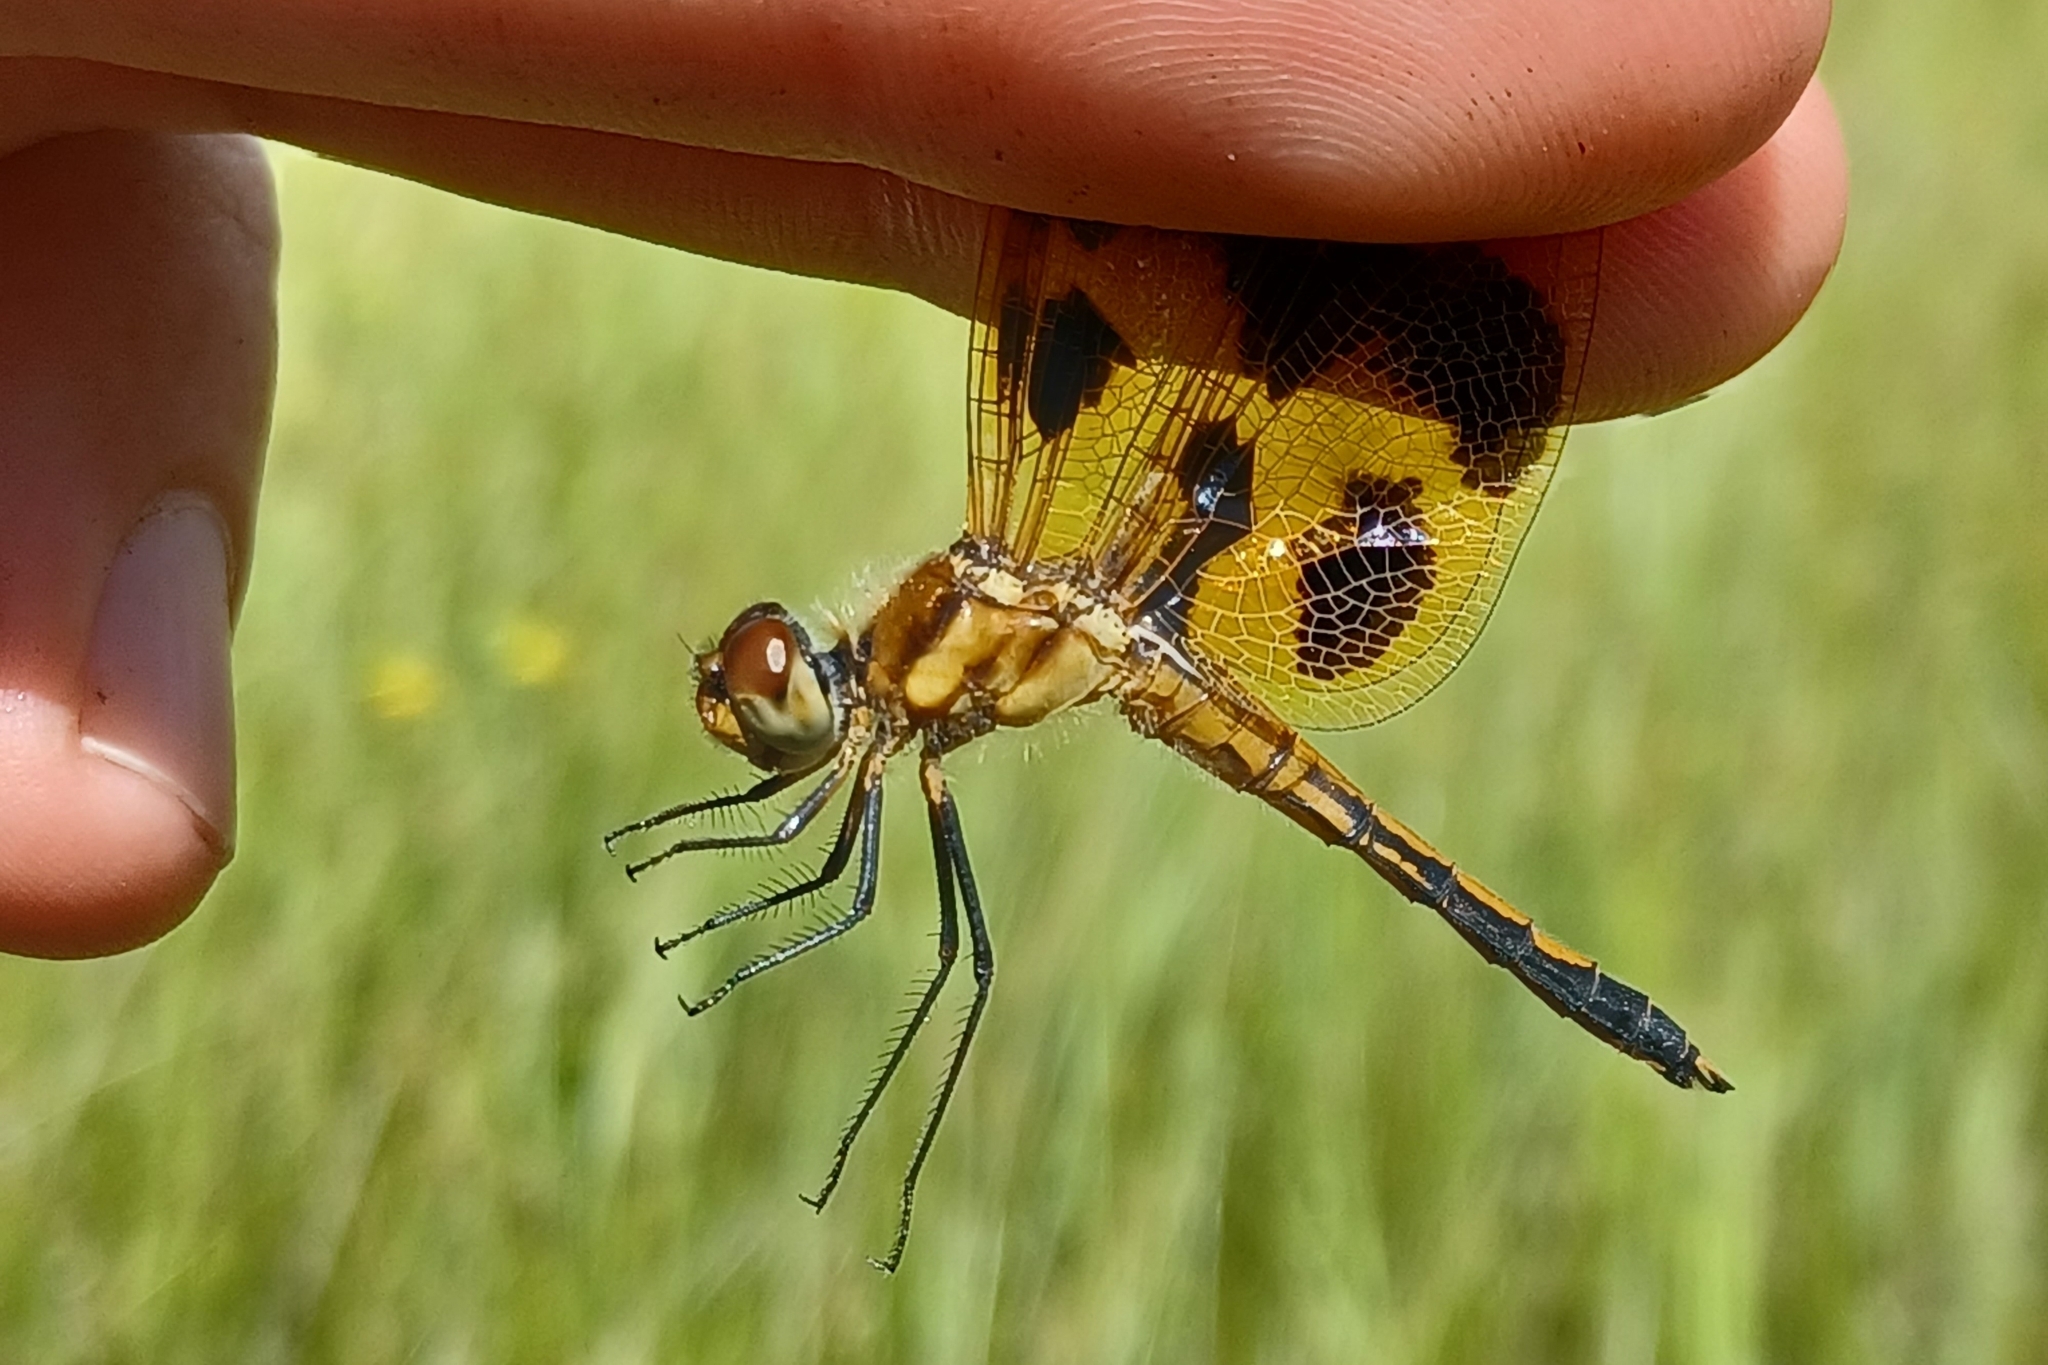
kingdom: Animalia
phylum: Arthropoda
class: Insecta
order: Odonata
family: Libellulidae
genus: Celithemis
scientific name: Celithemis eponina
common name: Halloween pennant
